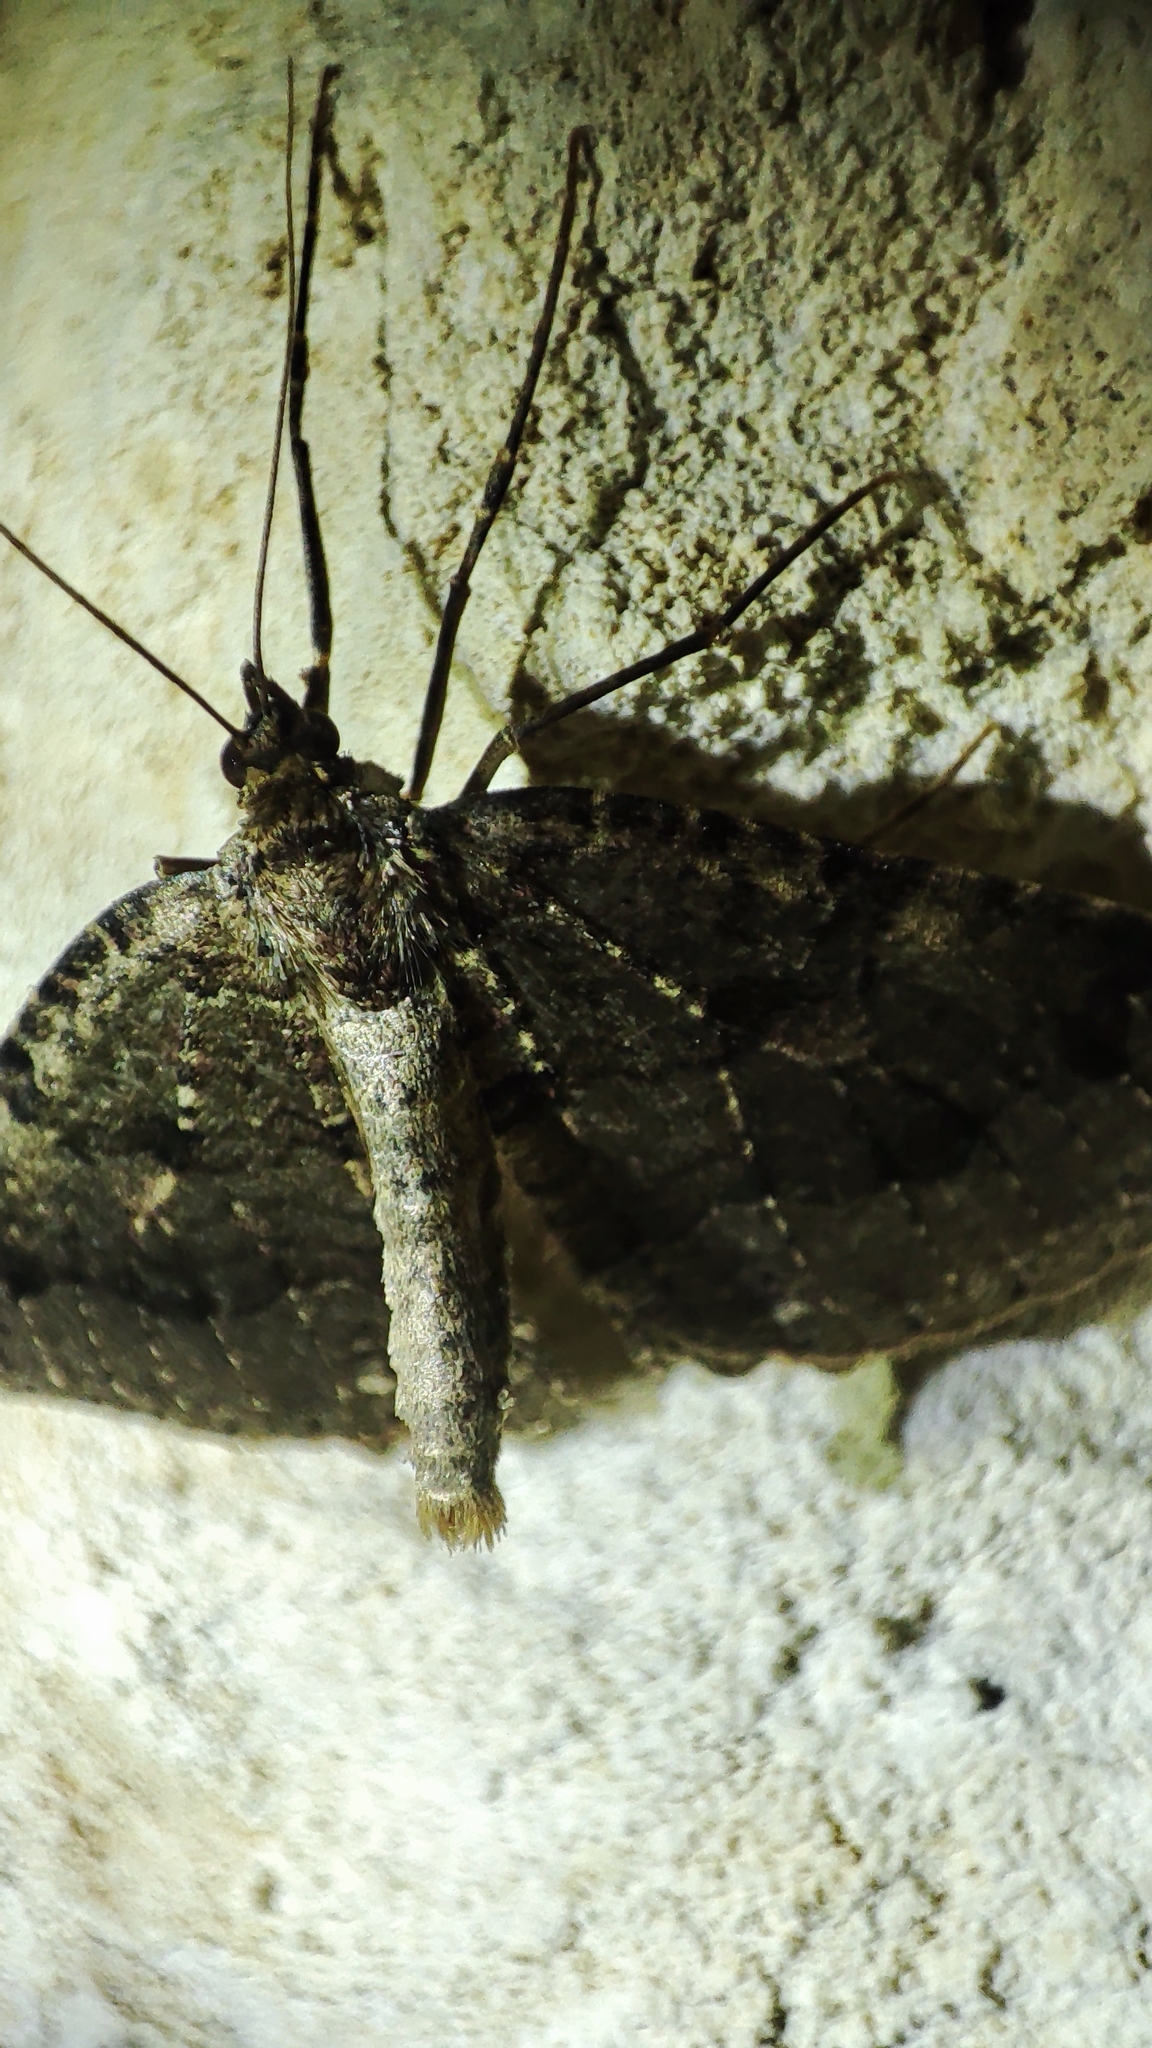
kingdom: Animalia
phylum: Arthropoda
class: Insecta
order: Lepidoptera
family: Geometridae
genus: Triphosa
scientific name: Triphosa dubitata
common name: Tissue
